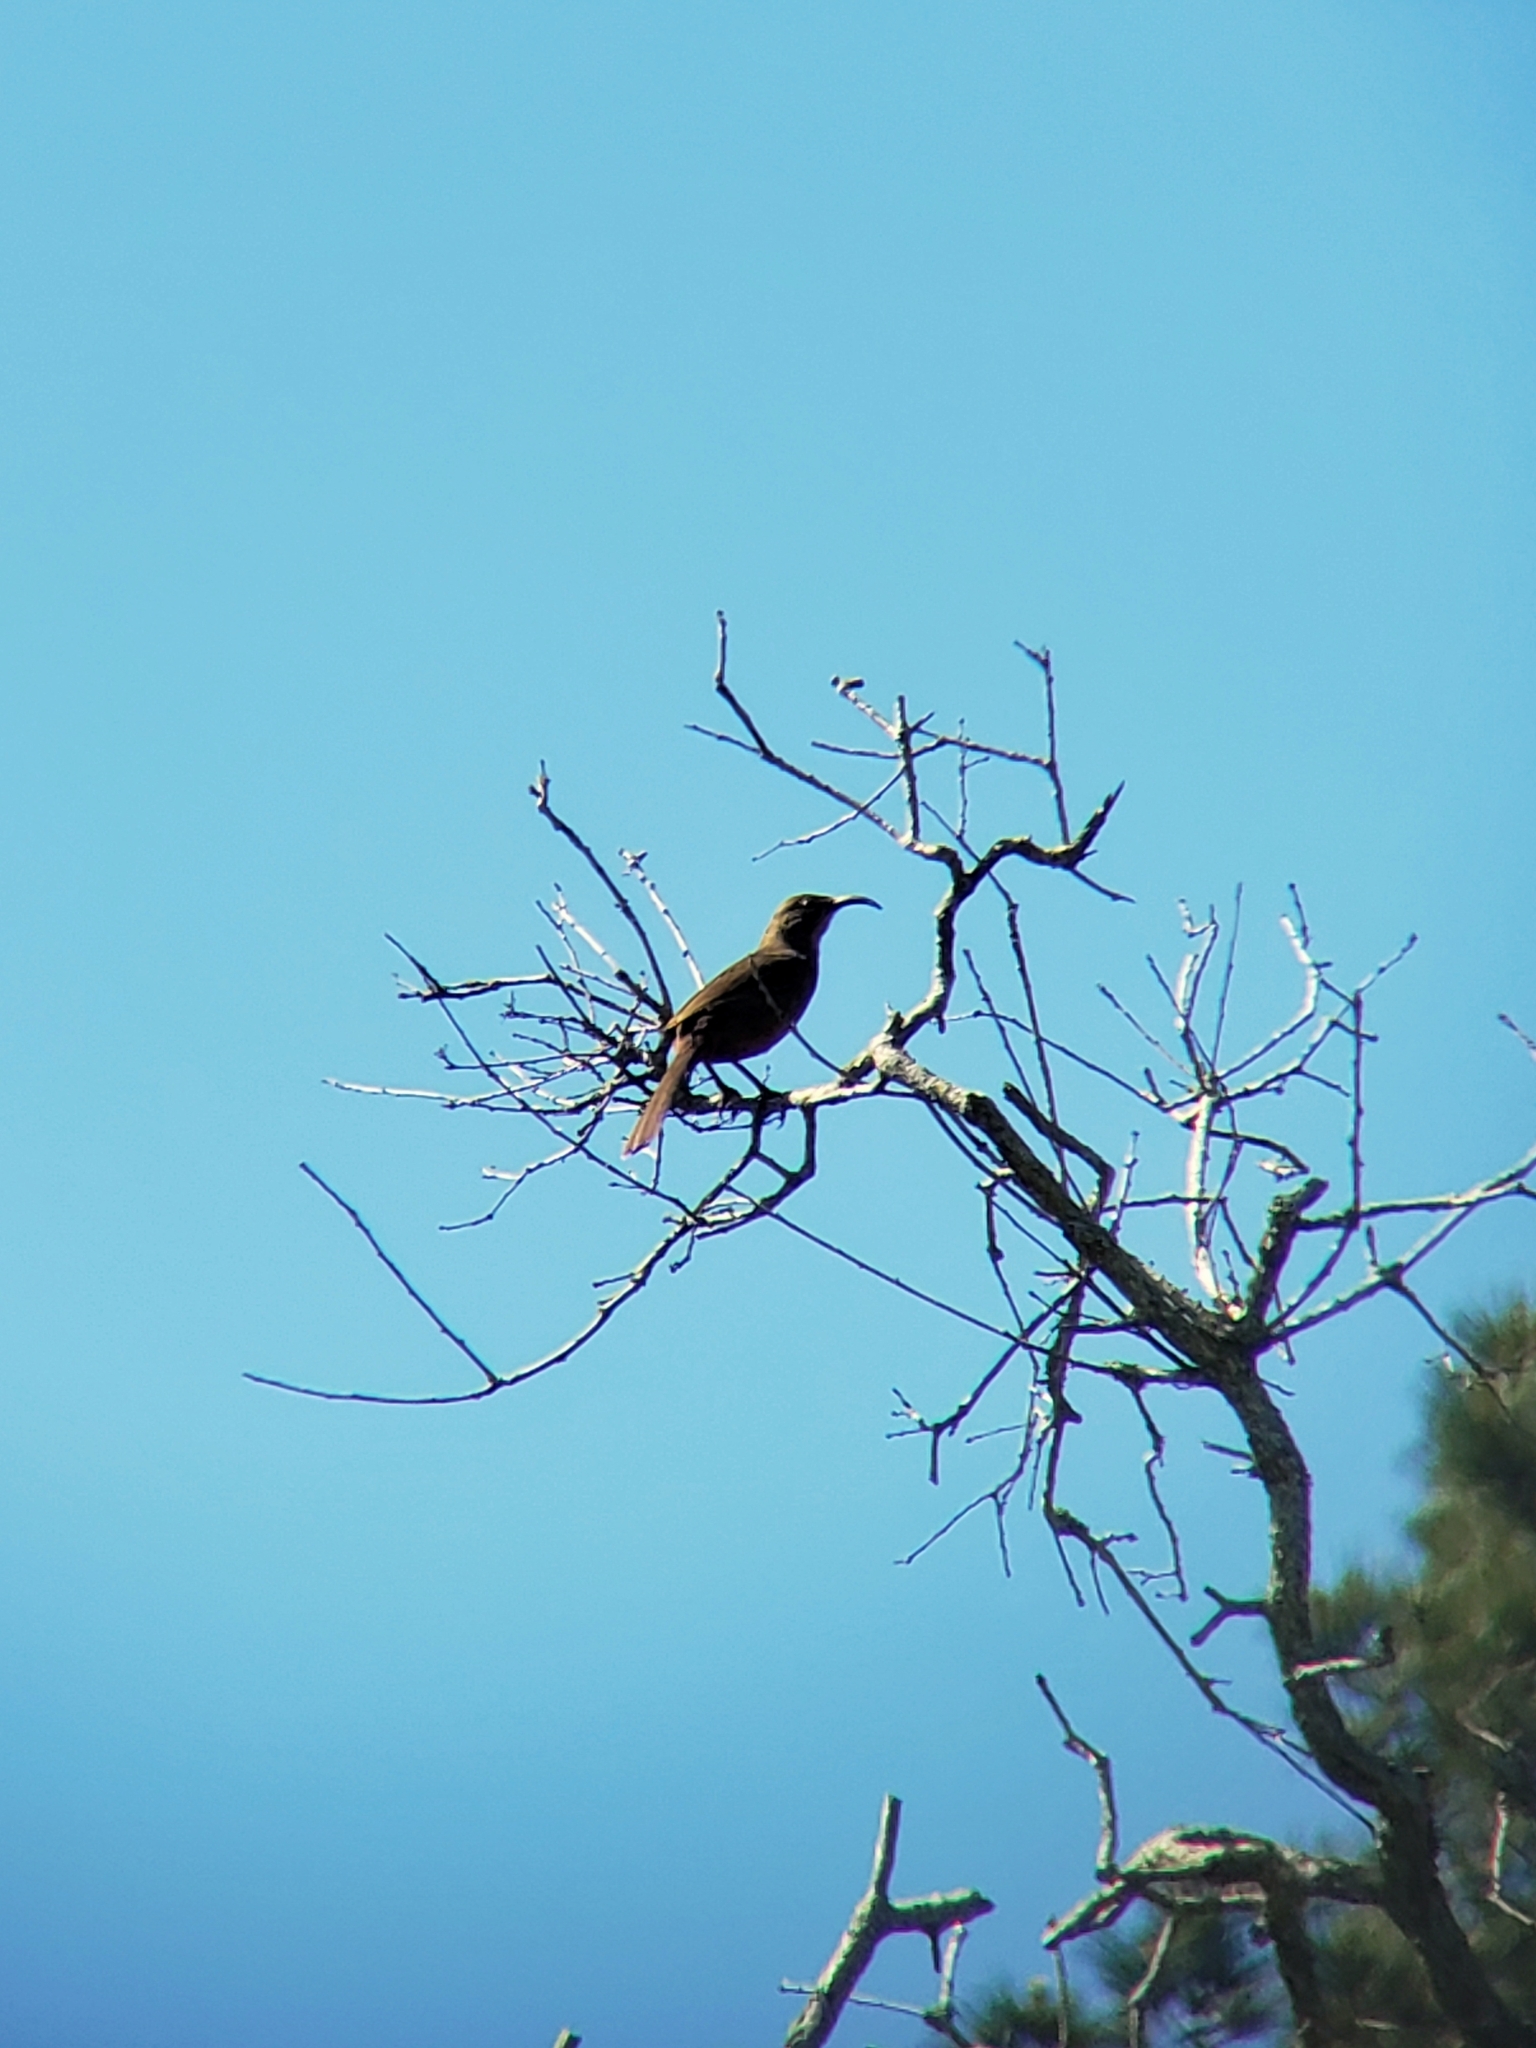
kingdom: Animalia
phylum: Chordata
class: Aves
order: Passeriformes
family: Mimidae
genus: Toxostoma
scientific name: Toxostoma redivivum
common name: California thrasher
